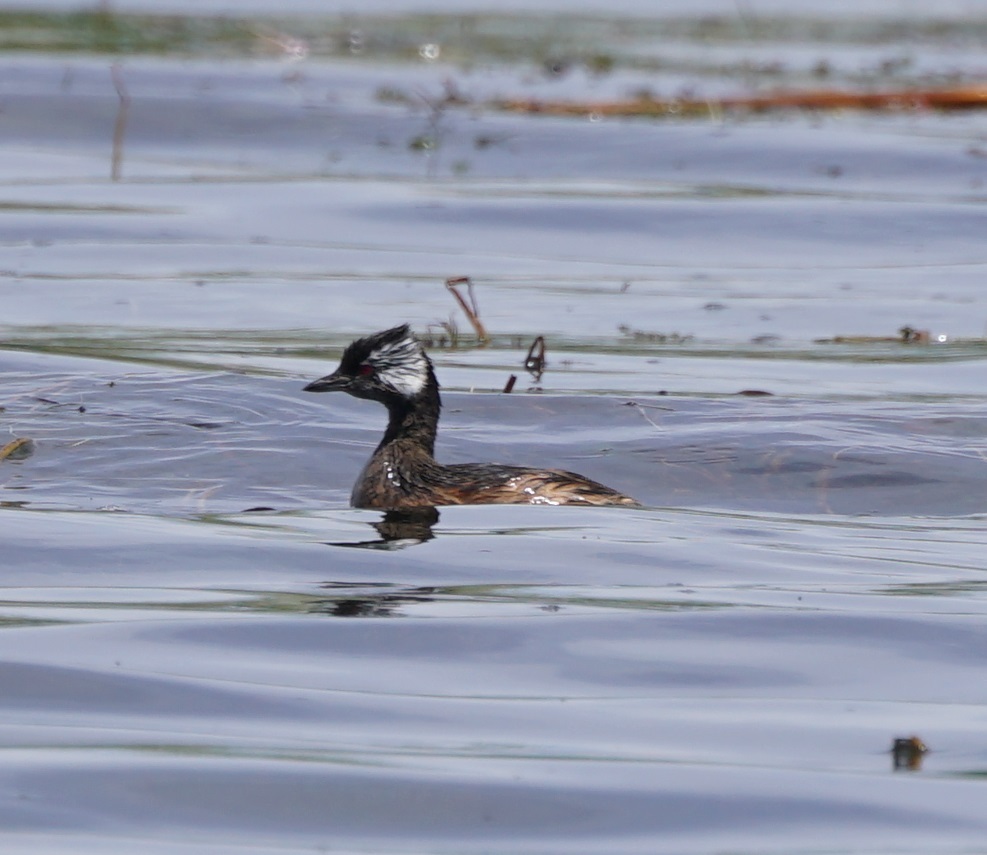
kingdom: Animalia
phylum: Chordata
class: Aves
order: Podicipediformes
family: Podicipedidae
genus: Rollandia
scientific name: Rollandia rolland
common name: White-tufted grebe
